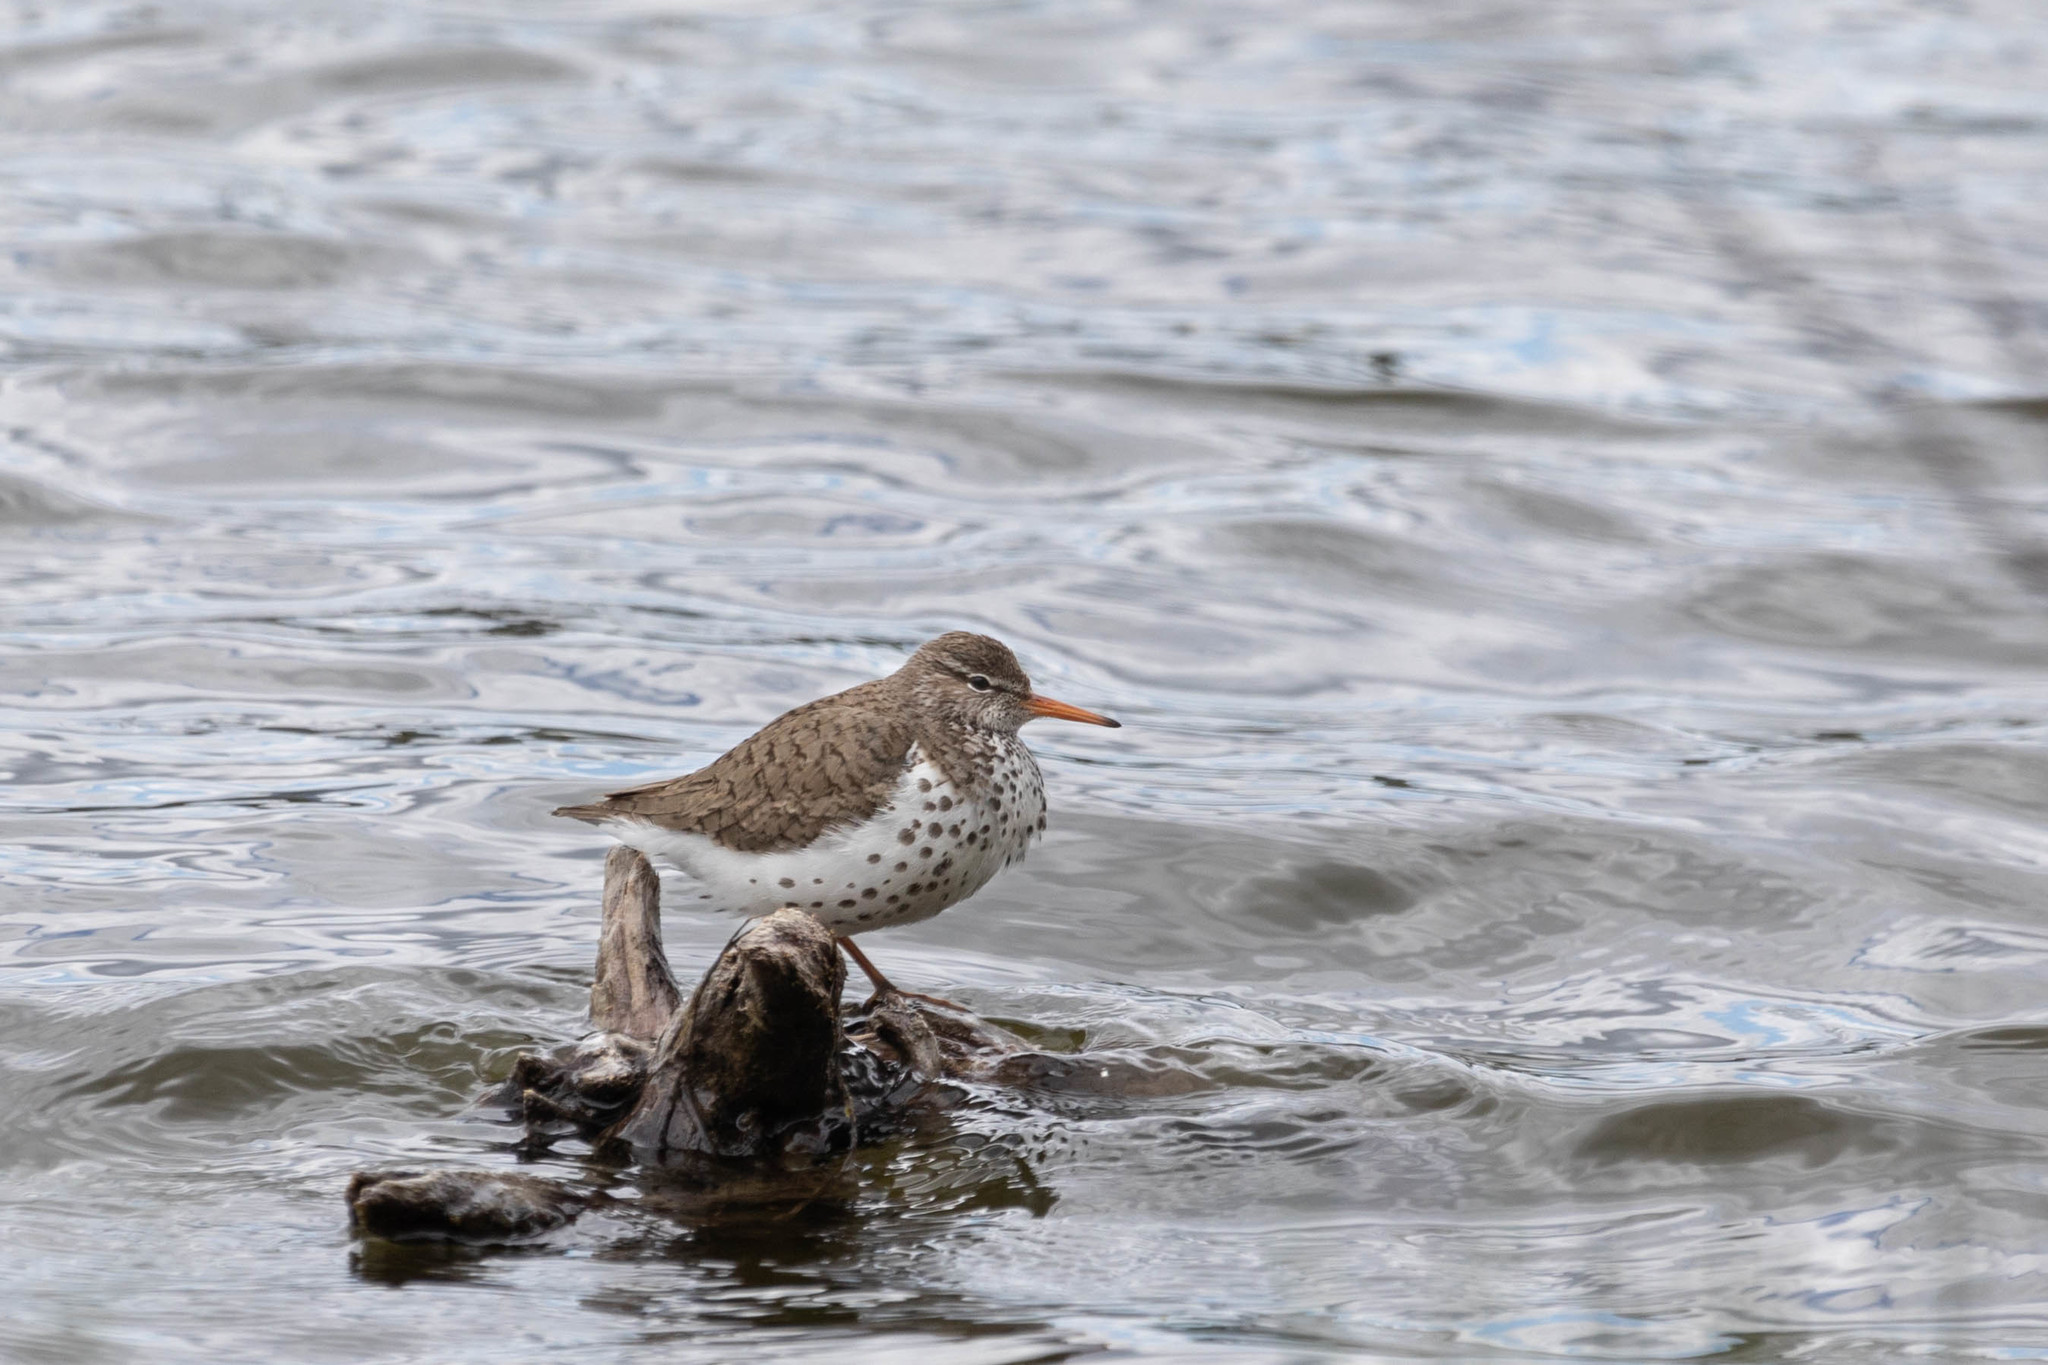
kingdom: Animalia
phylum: Chordata
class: Aves
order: Charadriiformes
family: Scolopacidae
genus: Actitis
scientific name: Actitis macularius
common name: Spotted sandpiper
